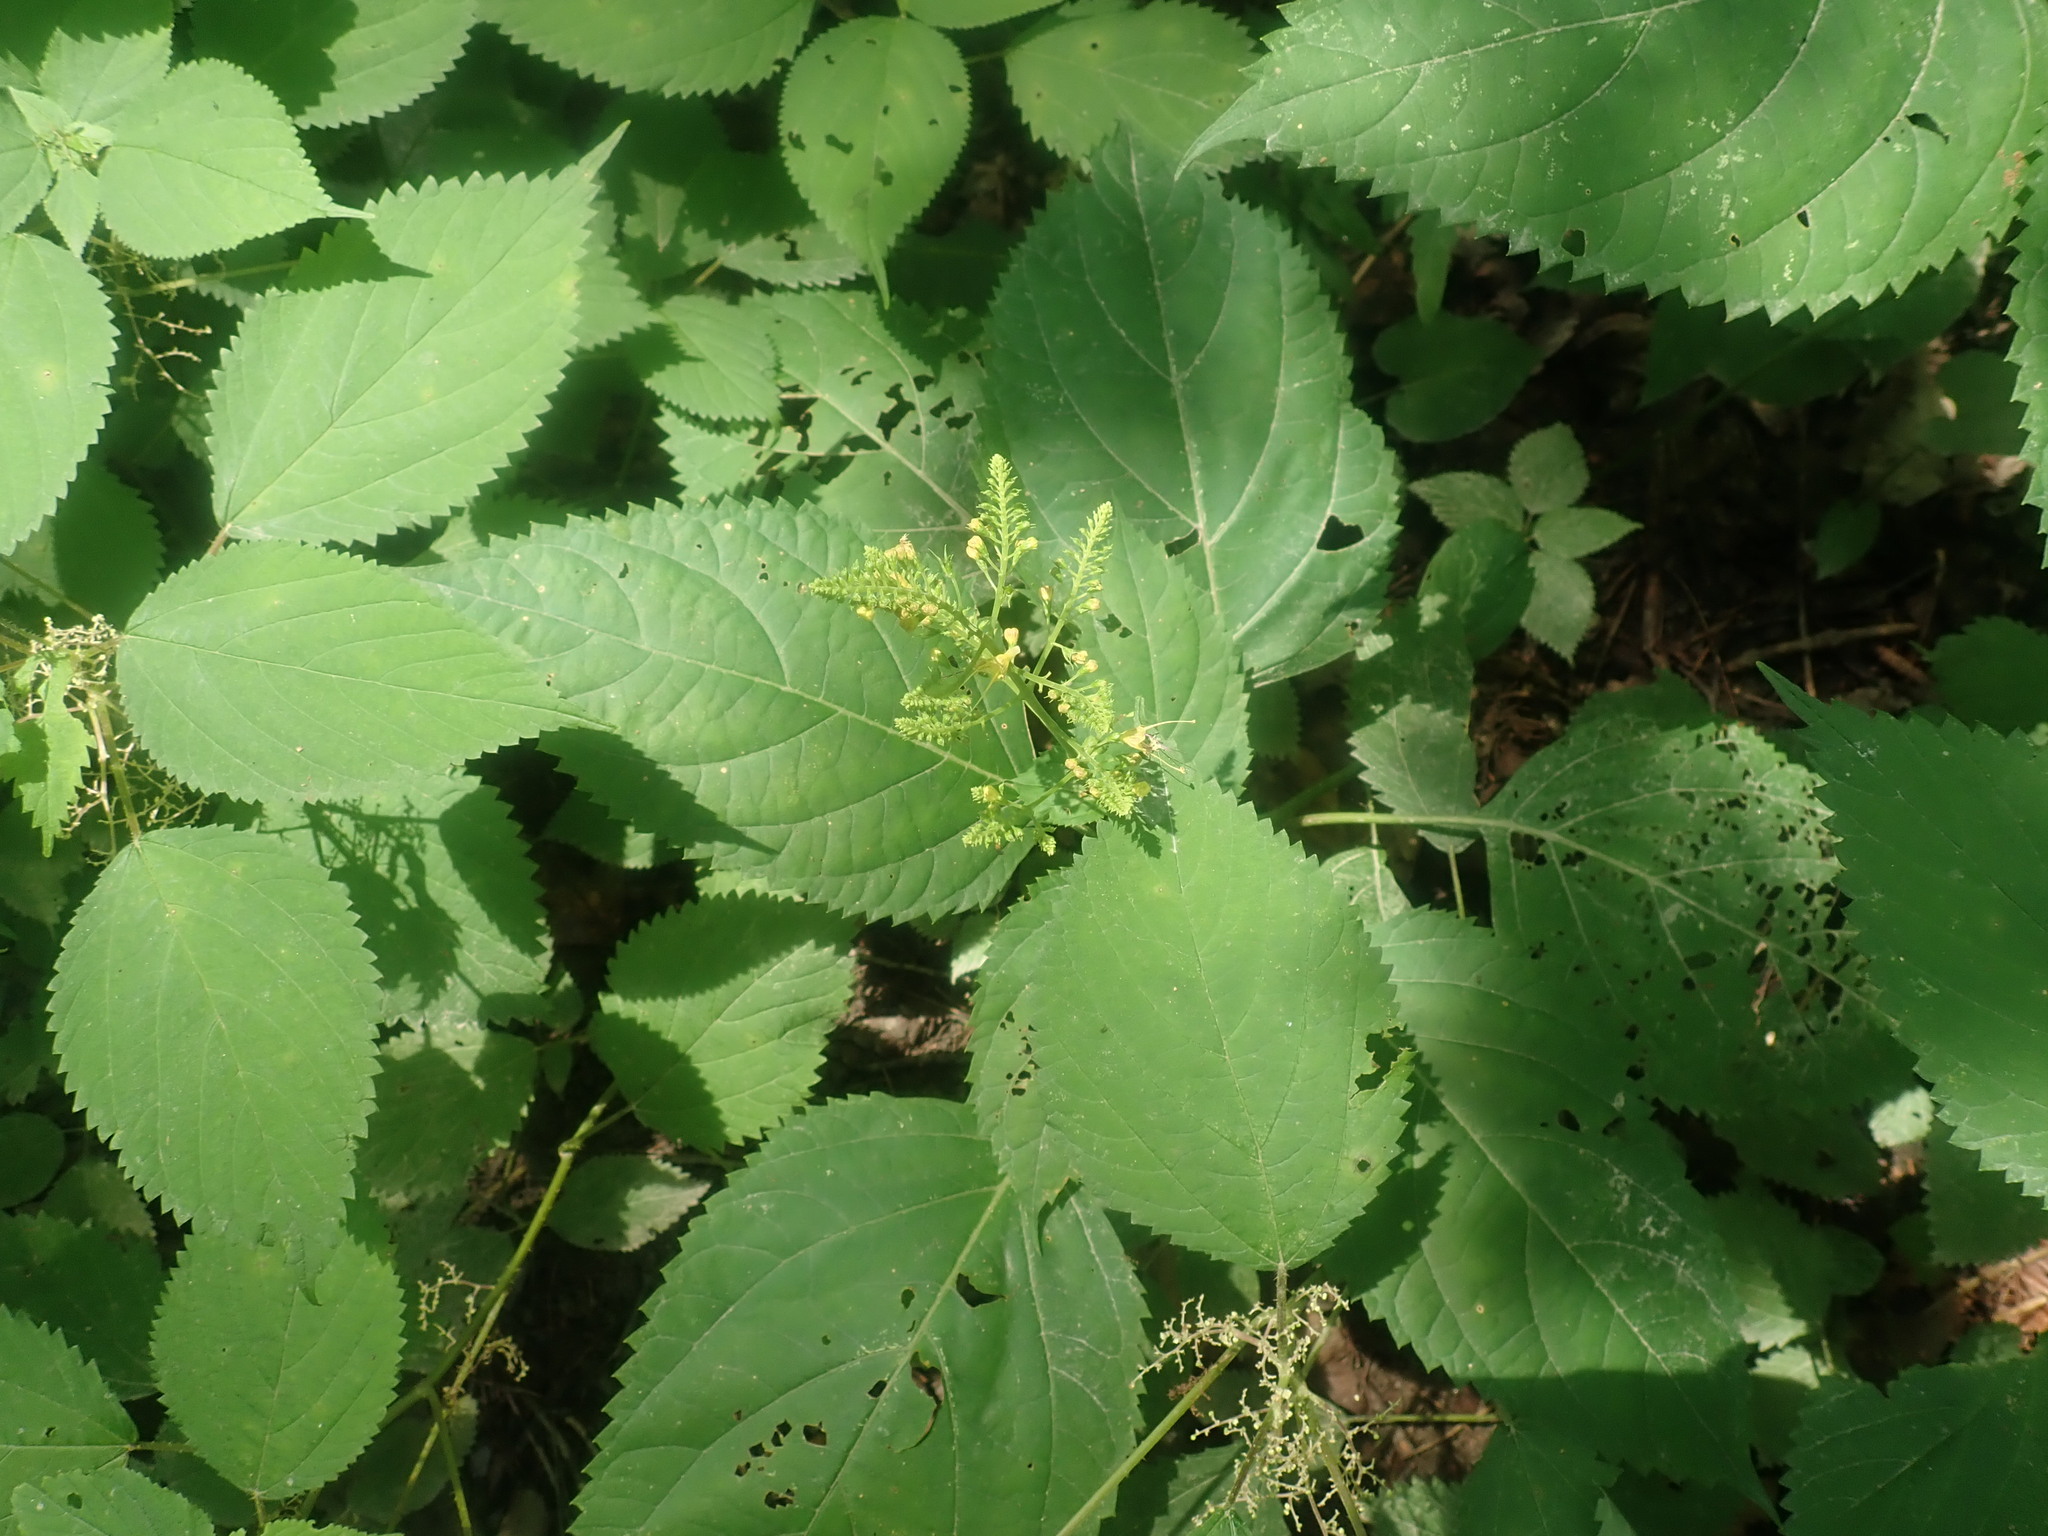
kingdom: Plantae
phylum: Tracheophyta
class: Magnoliopsida
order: Lamiales
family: Lamiaceae
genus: Collinsonia
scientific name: Collinsonia canadensis
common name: Northern horsebalm
